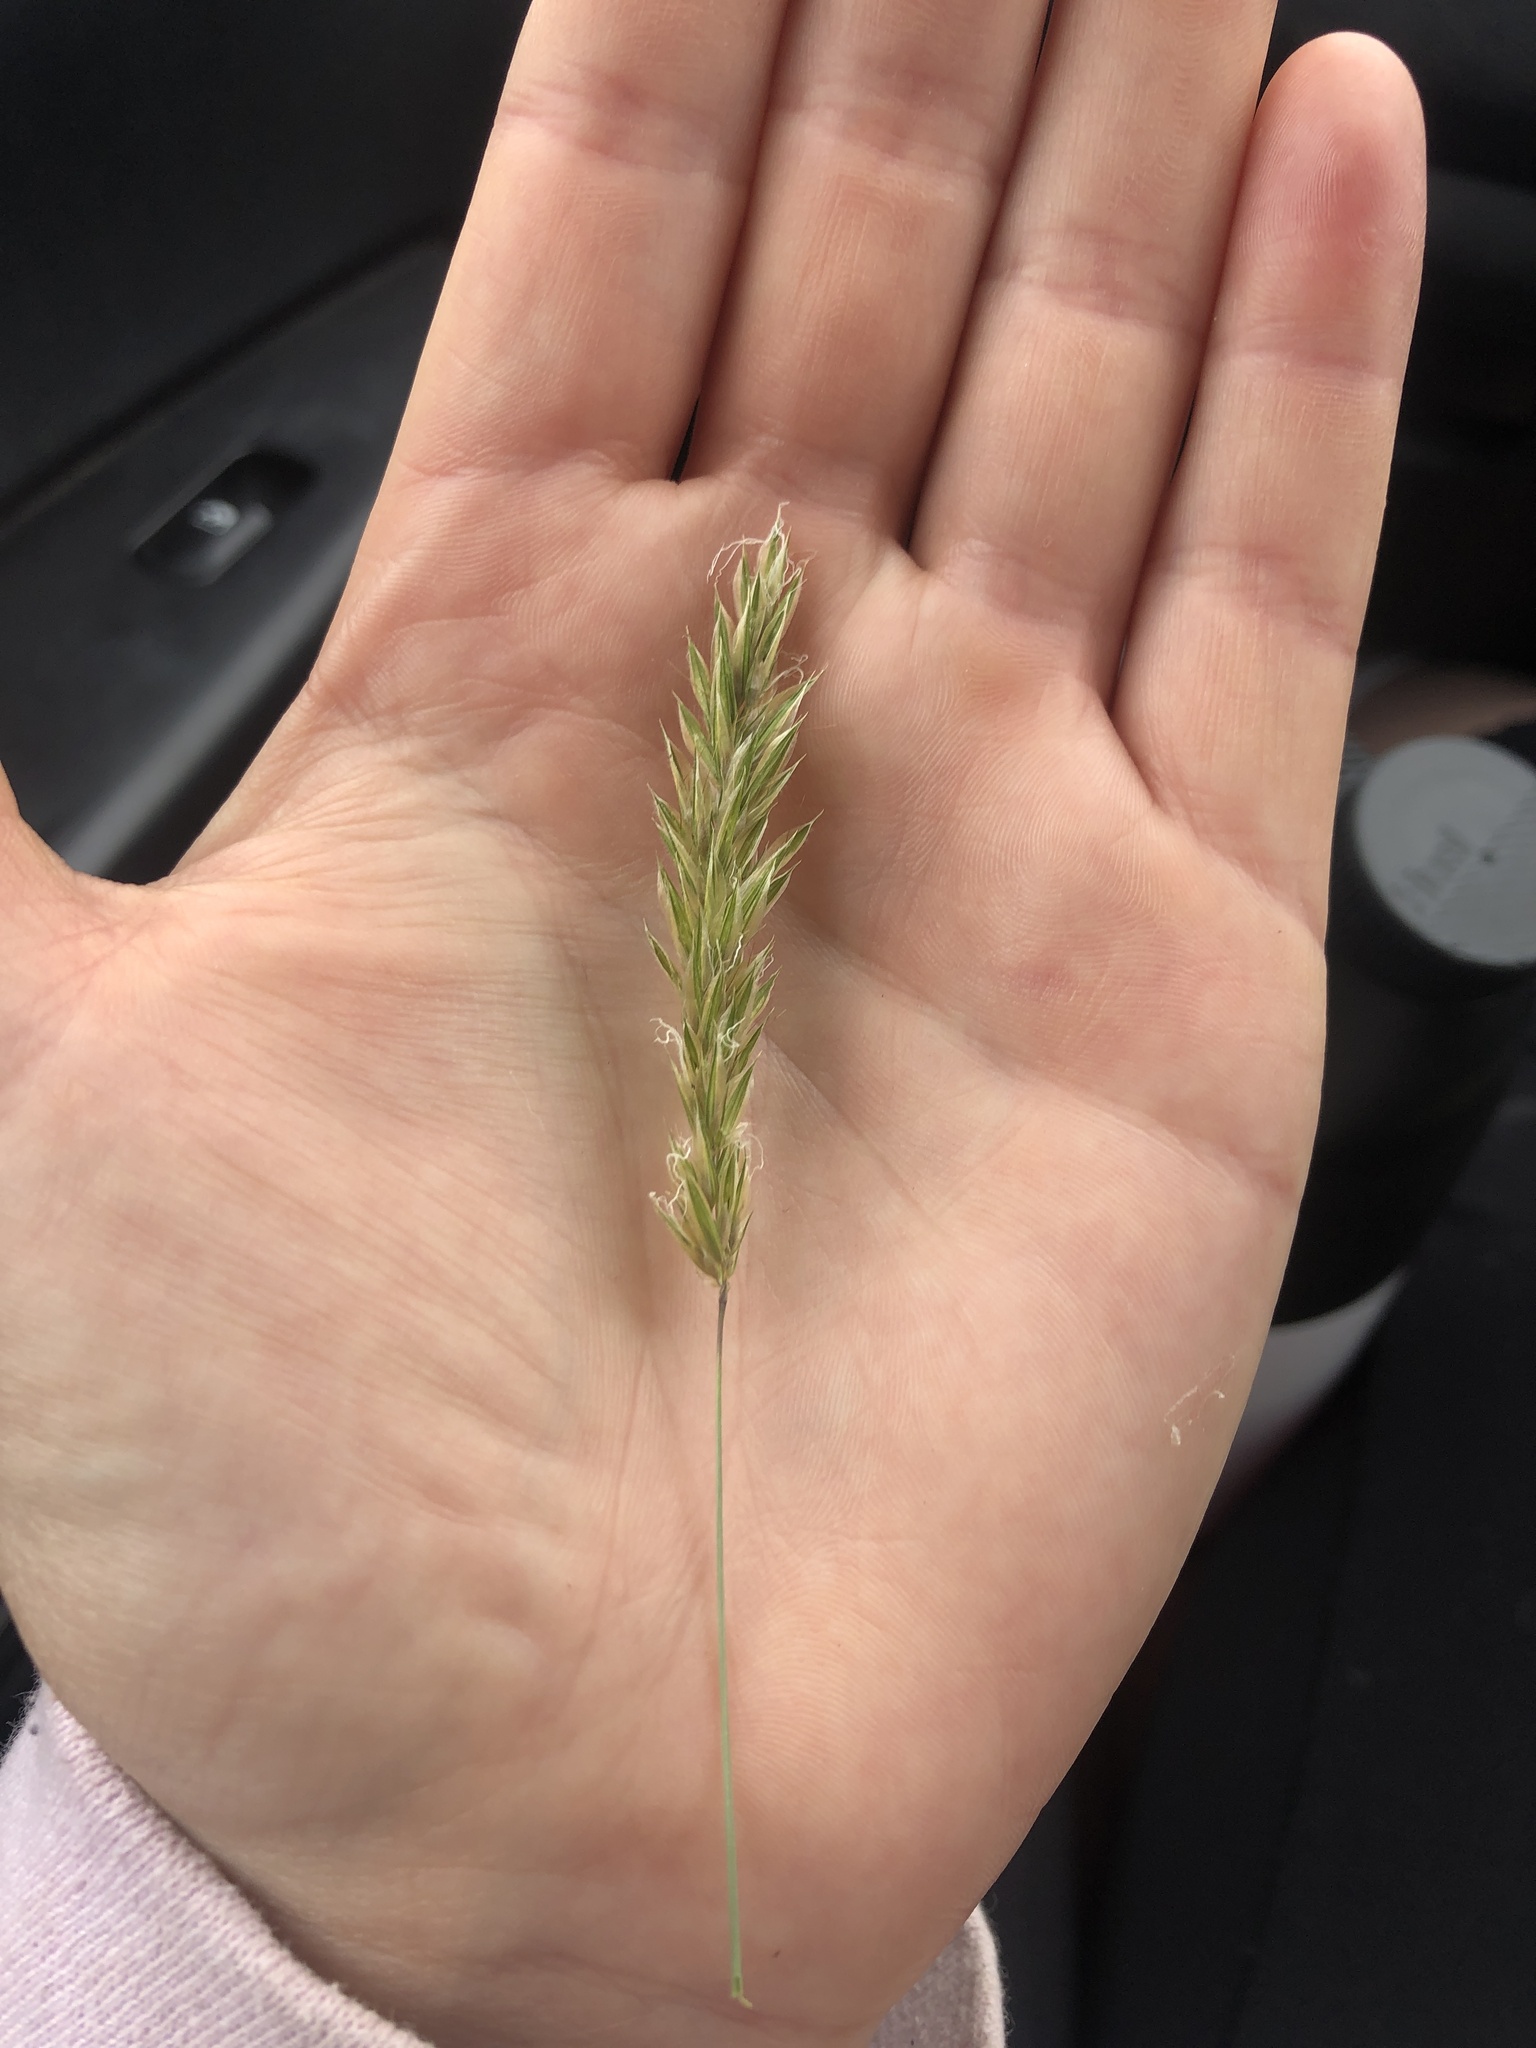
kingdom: Plantae
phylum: Tracheophyta
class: Liliopsida
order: Poales
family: Poaceae
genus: Anthoxanthum
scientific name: Anthoxanthum odoratum
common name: Sweet vernalgrass
